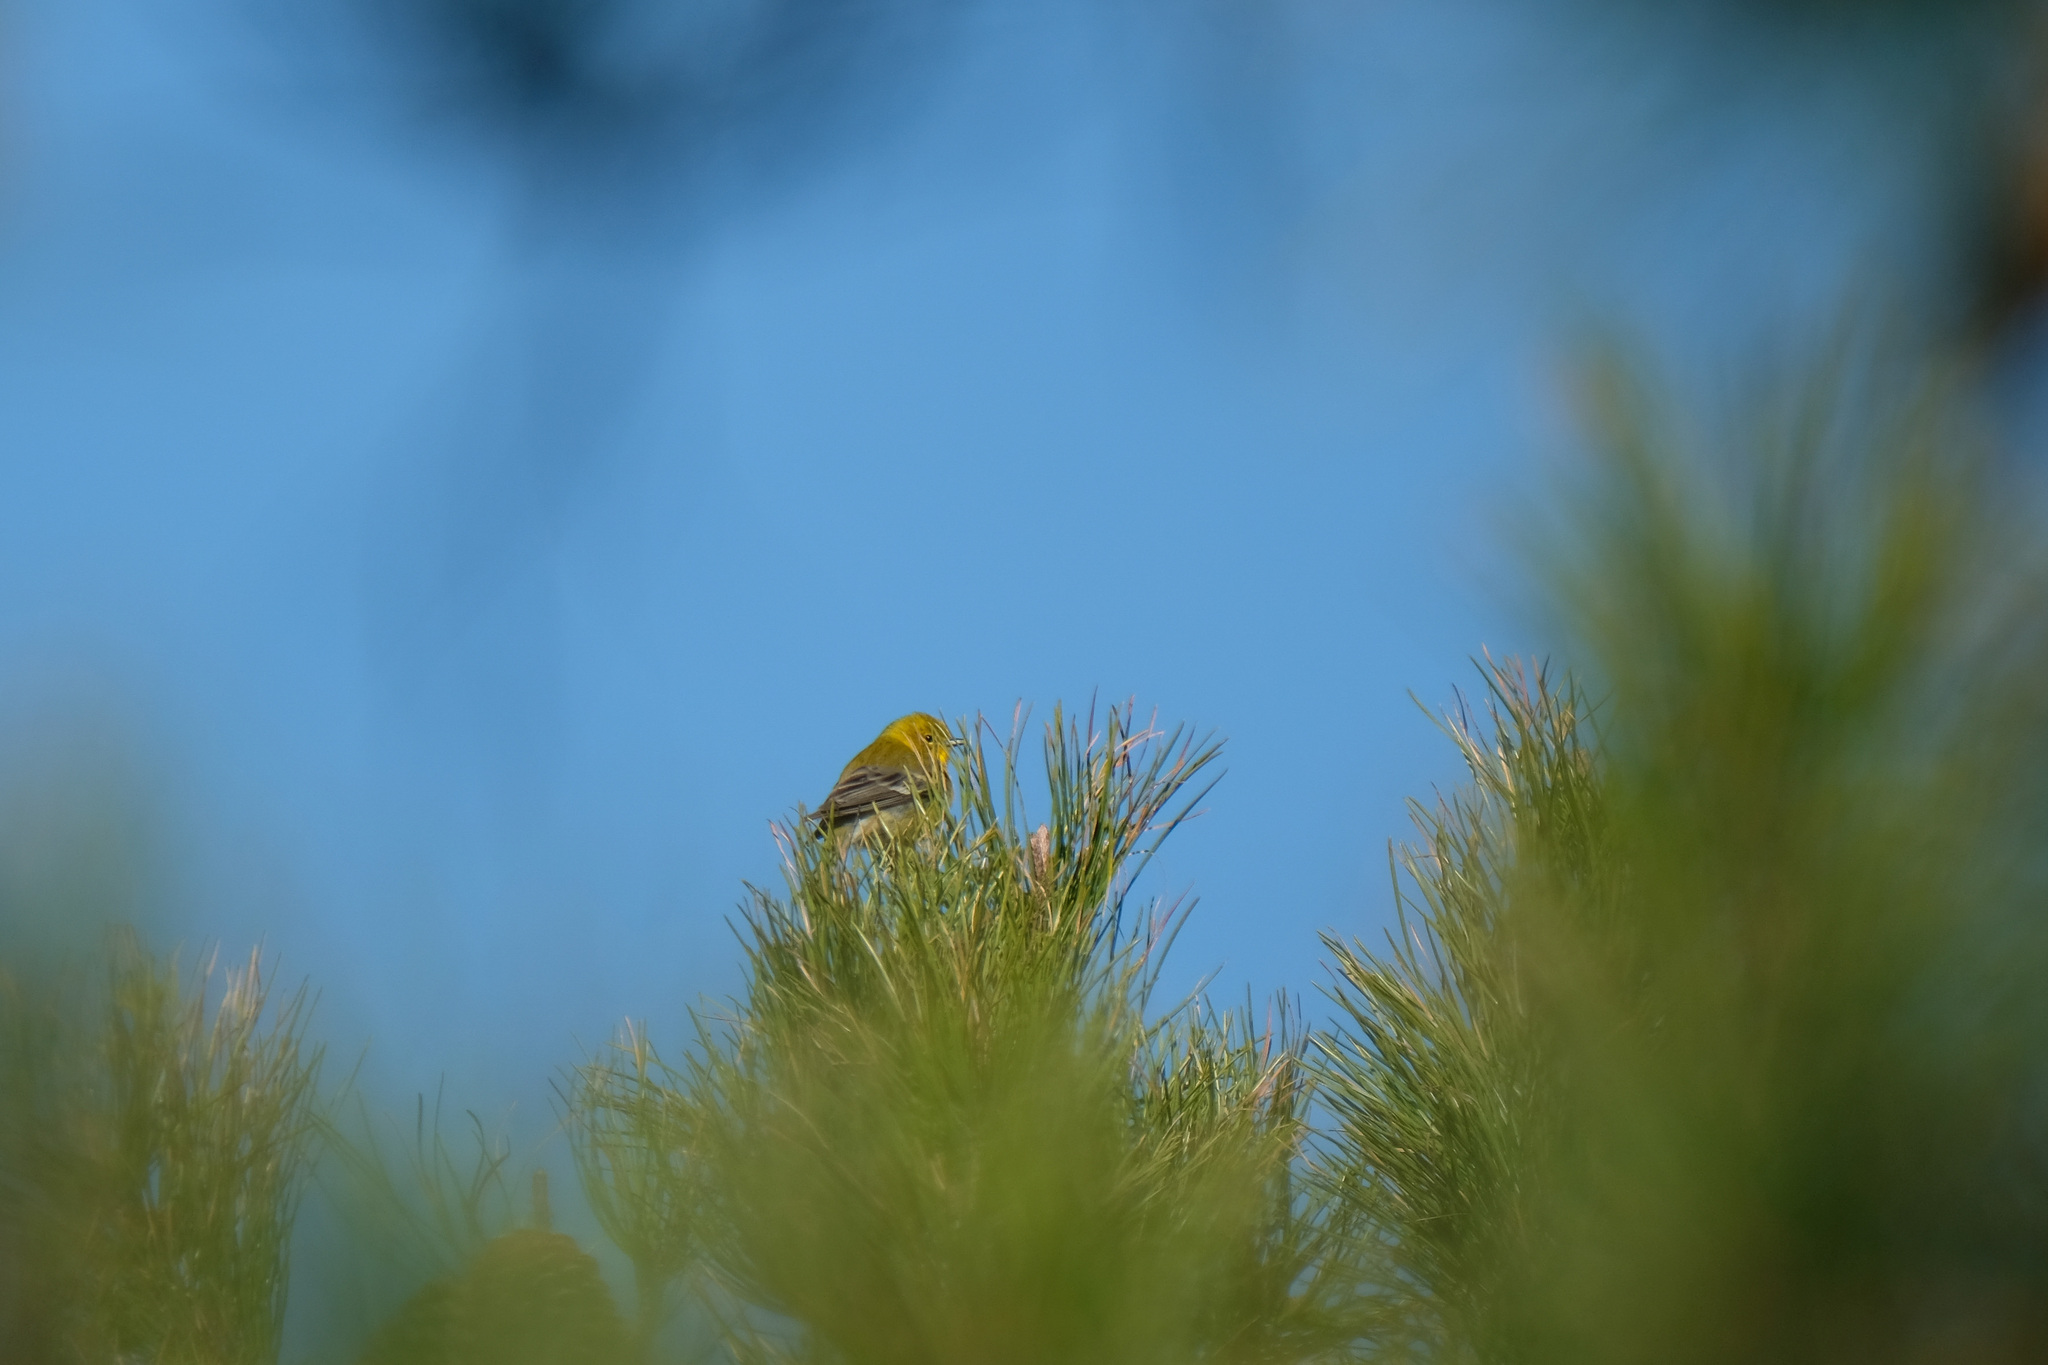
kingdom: Animalia
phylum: Chordata
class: Aves
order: Passeriformes
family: Parulidae
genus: Setophaga
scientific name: Setophaga pinus
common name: Pine warbler
